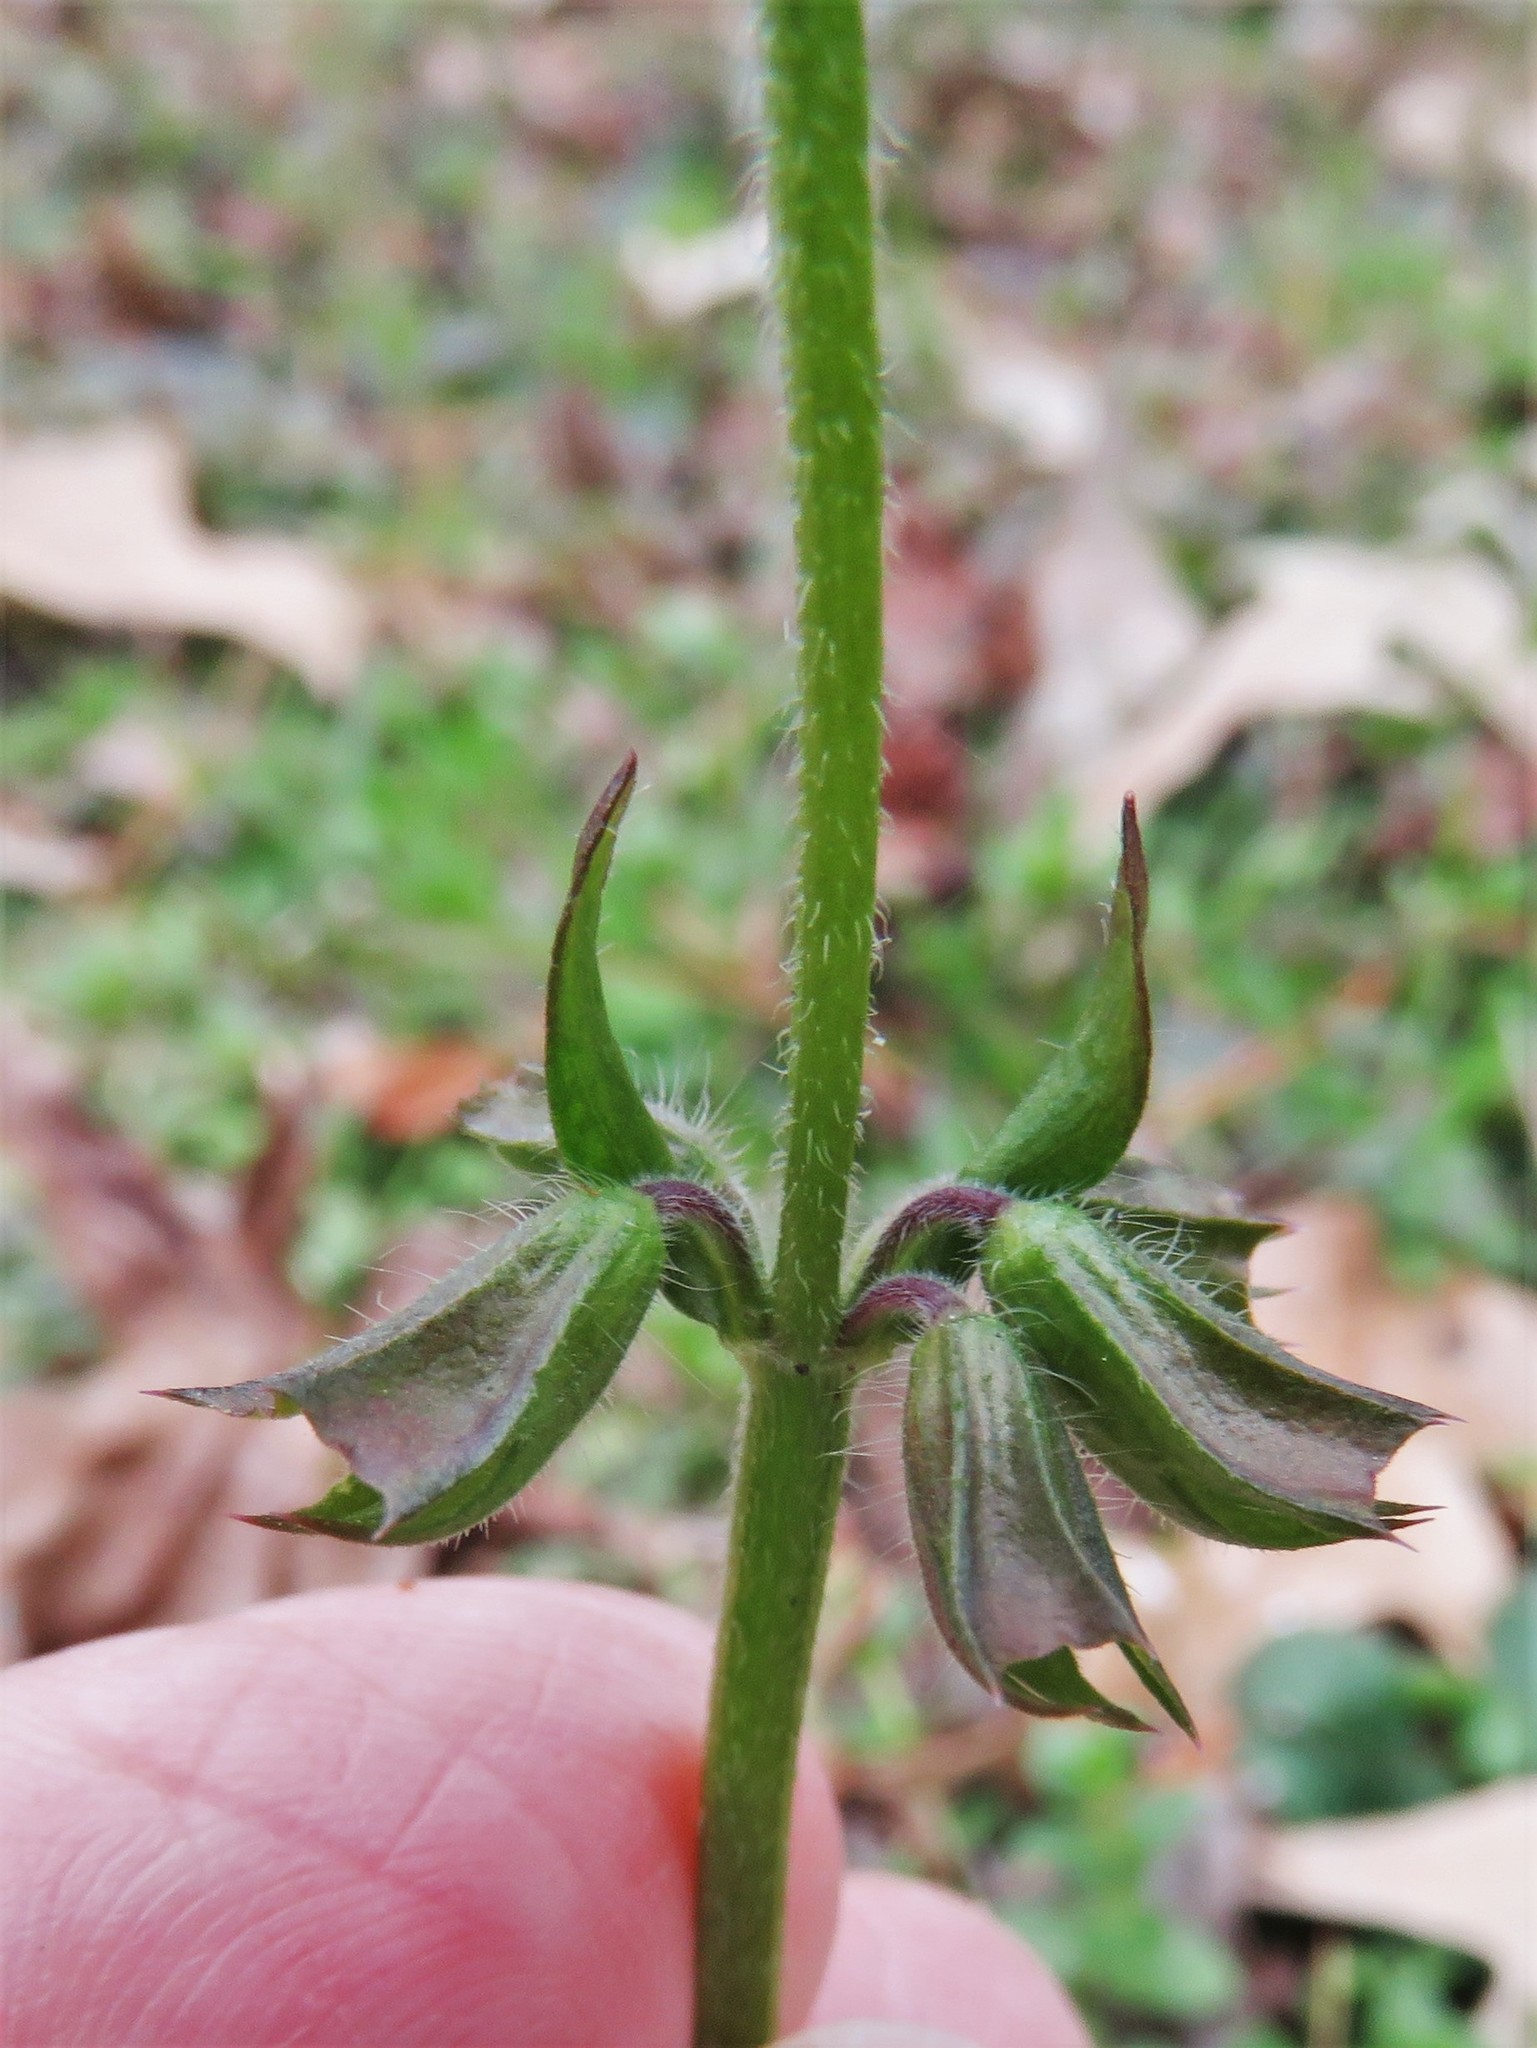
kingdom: Plantae
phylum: Tracheophyta
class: Magnoliopsida
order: Lamiales
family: Lamiaceae
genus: Salvia
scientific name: Salvia lyrata
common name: Cancerweed
